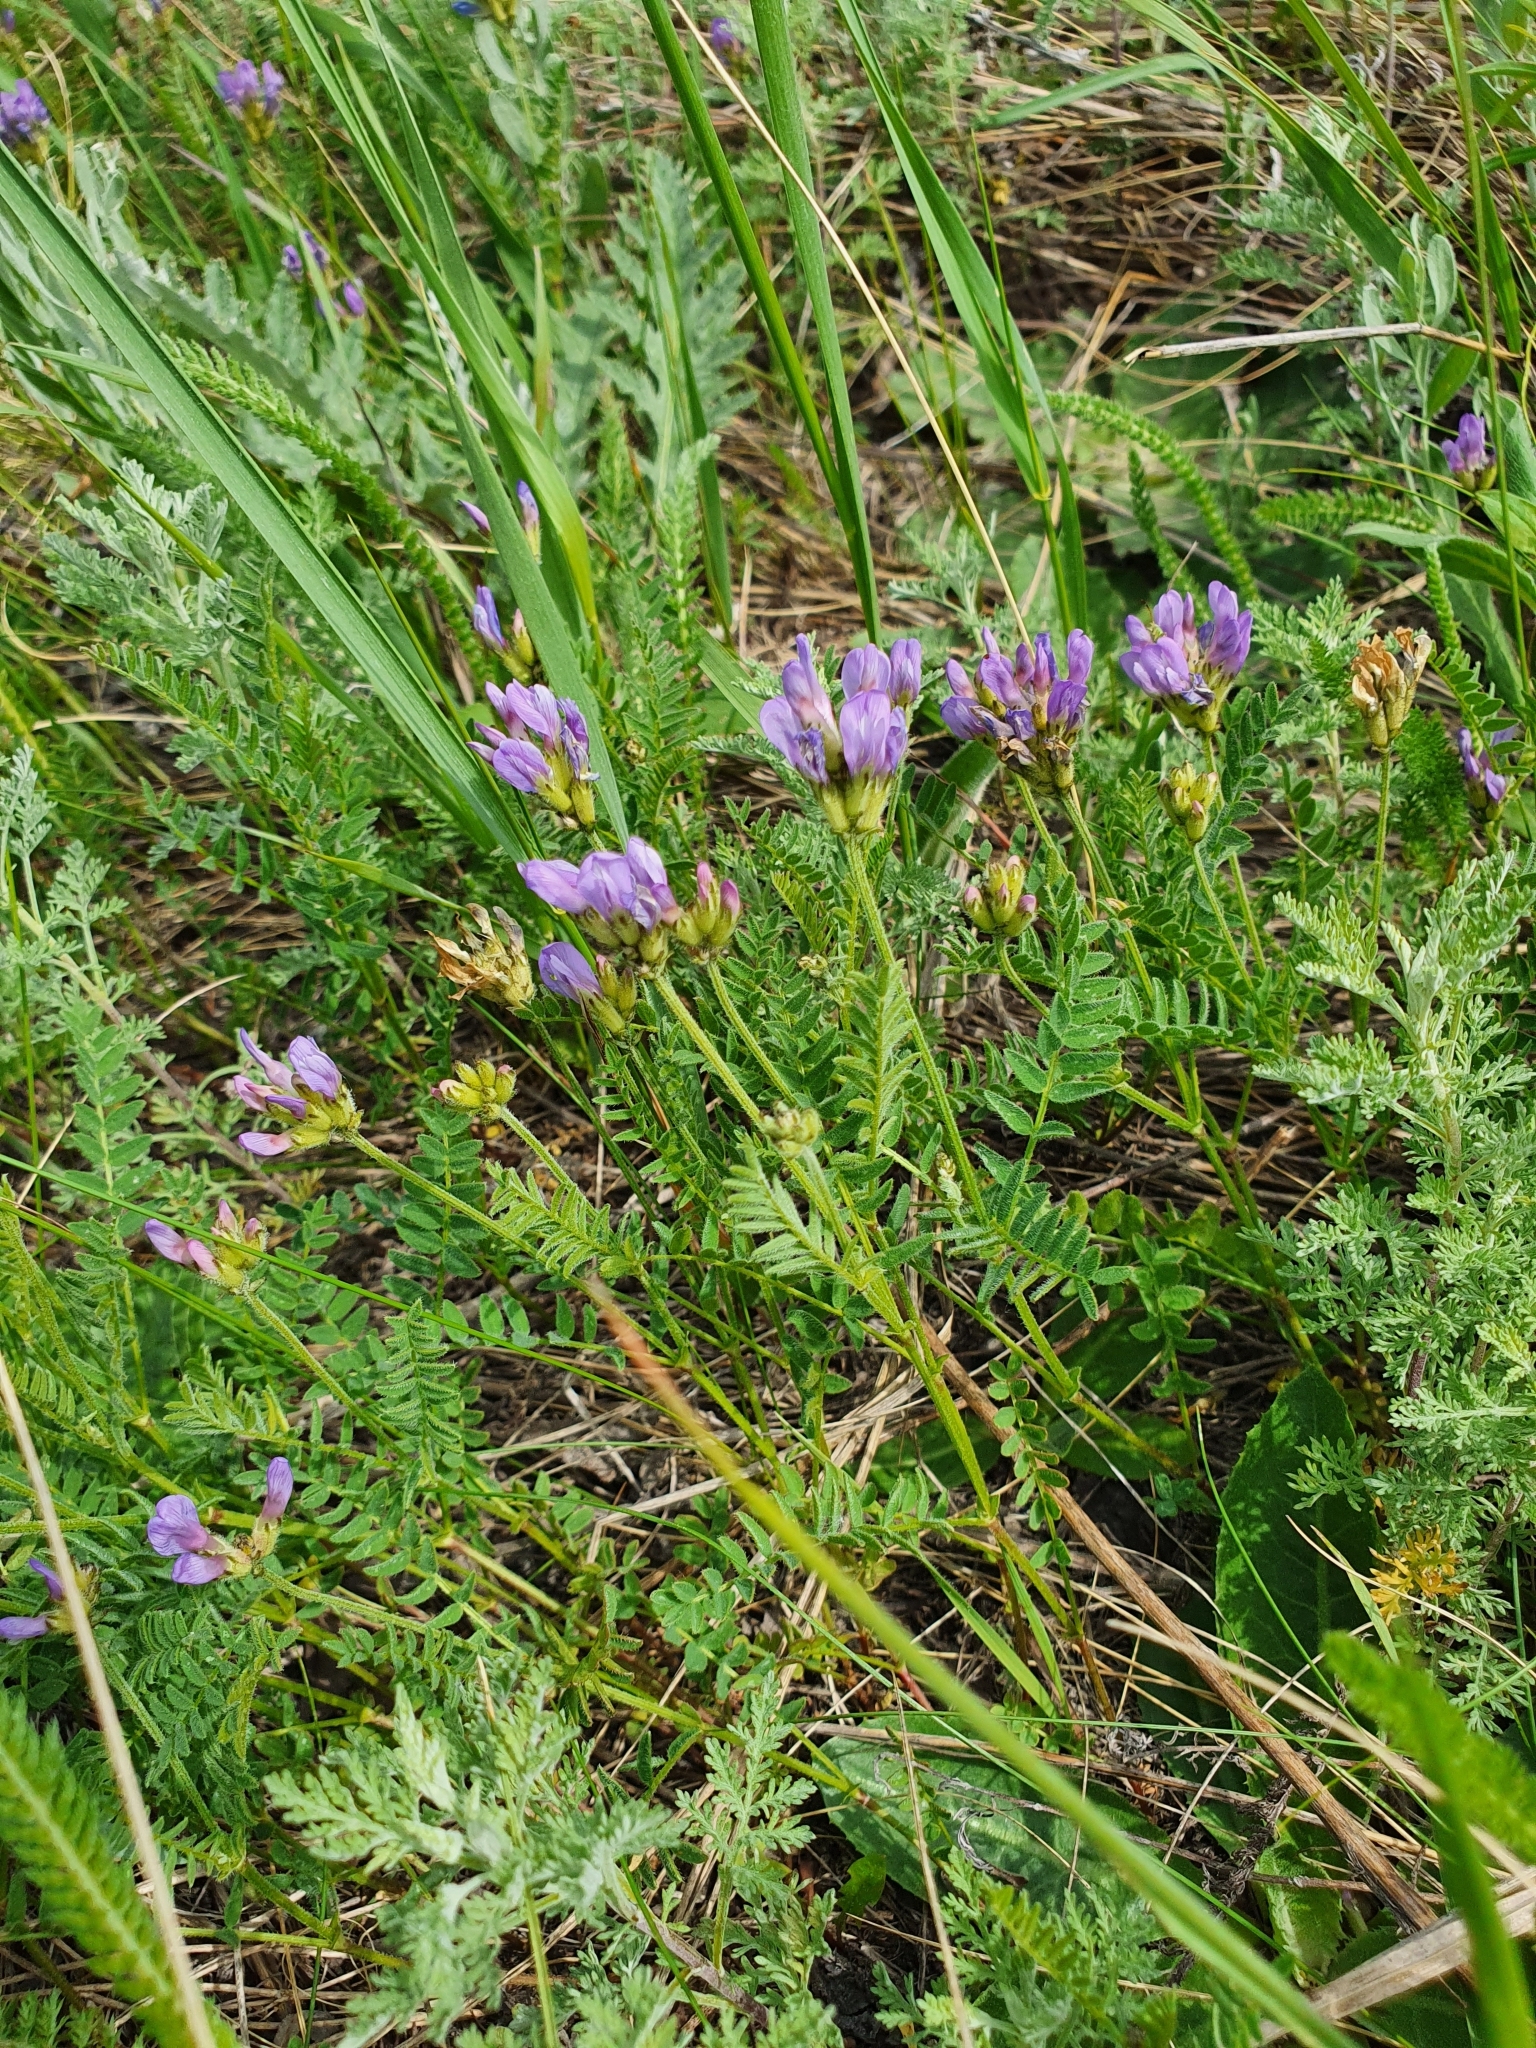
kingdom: Plantae
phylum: Tracheophyta
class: Magnoliopsida
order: Fabales
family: Fabaceae
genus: Astragalus
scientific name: Astragalus danicus
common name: Purple milk-vetch
